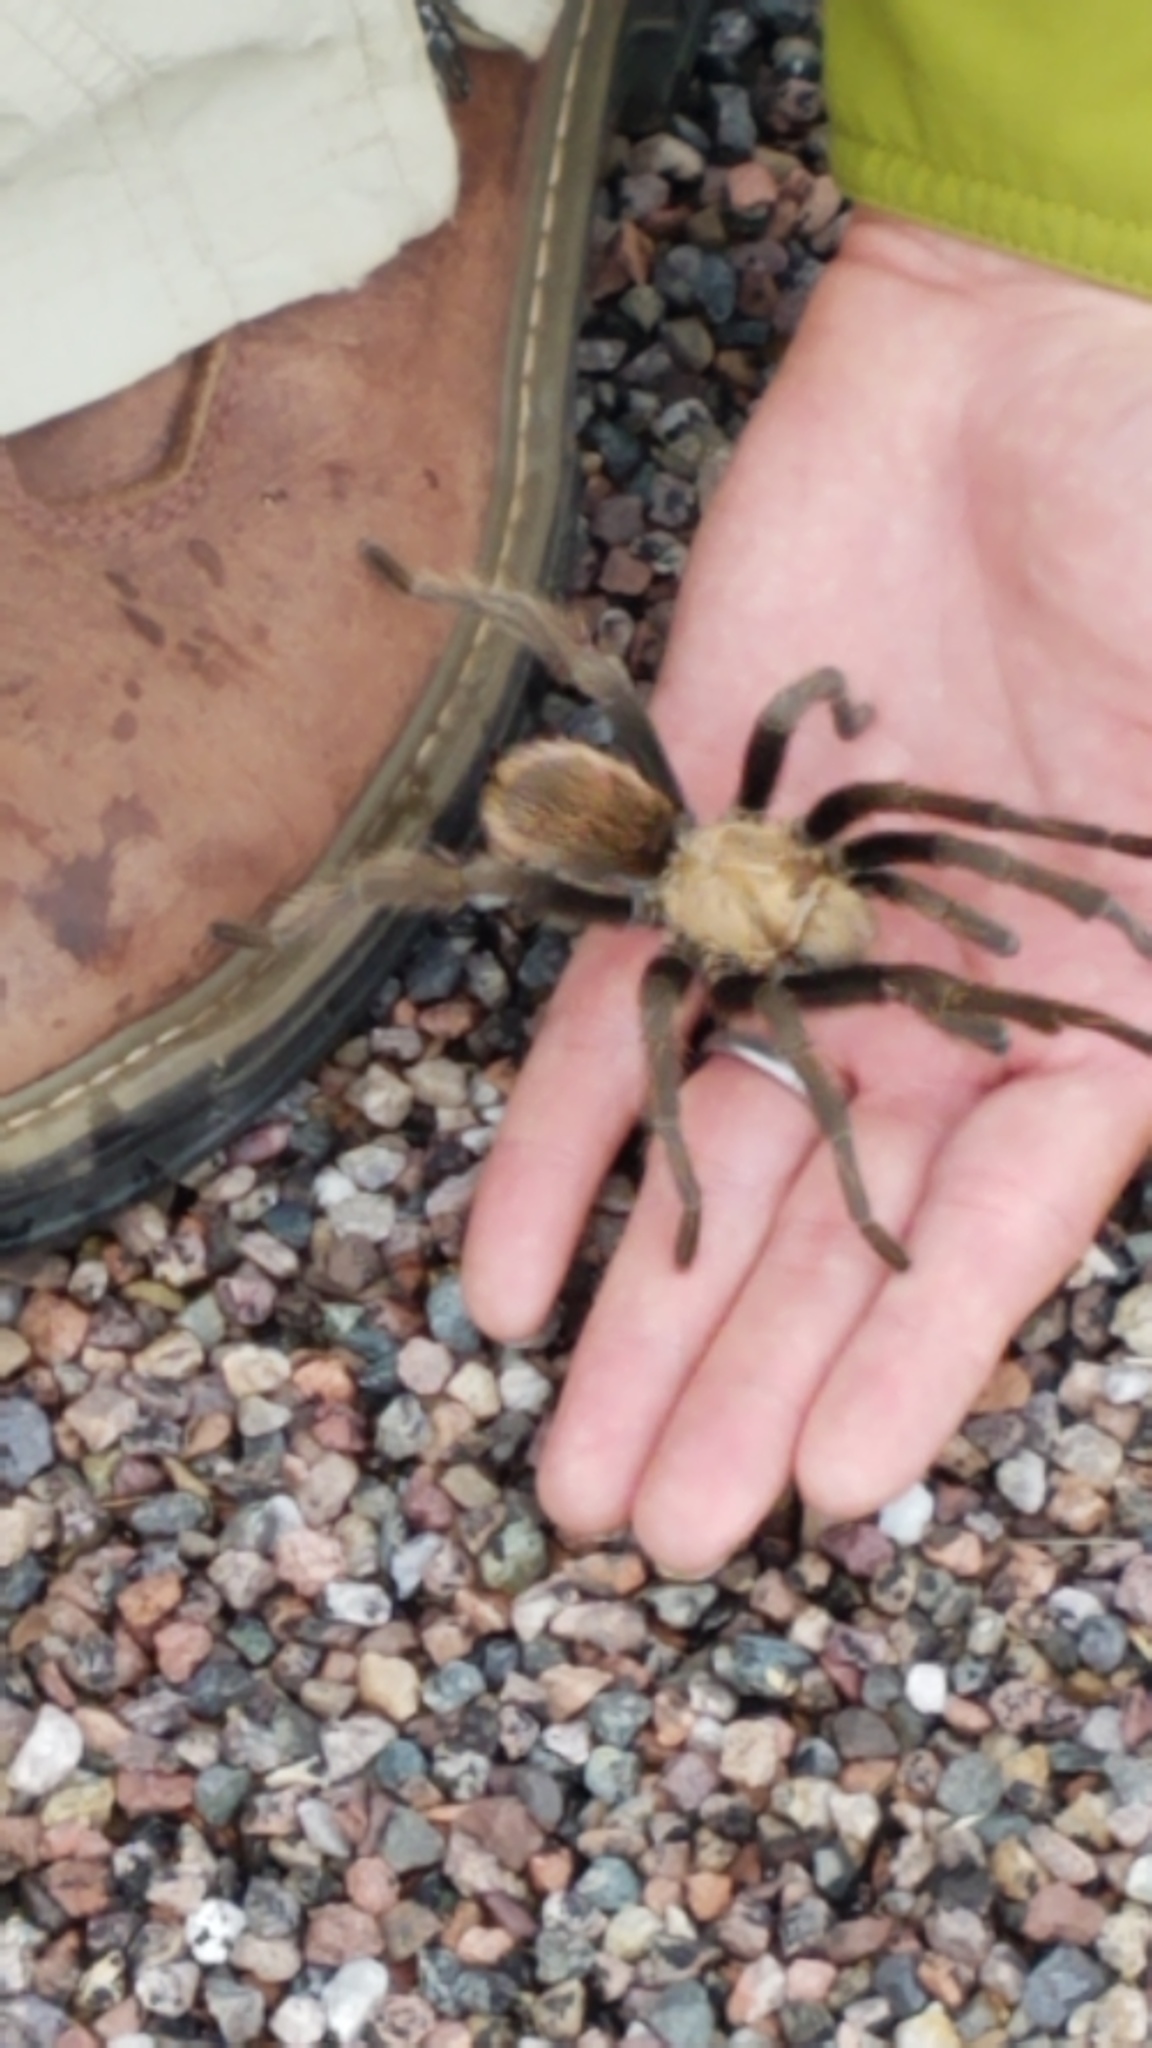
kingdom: Animalia
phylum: Arthropoda
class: Arachnida
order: Araneae
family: Theraphosidae
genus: Aphonopelma
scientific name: Aphonopelma chalcodes
